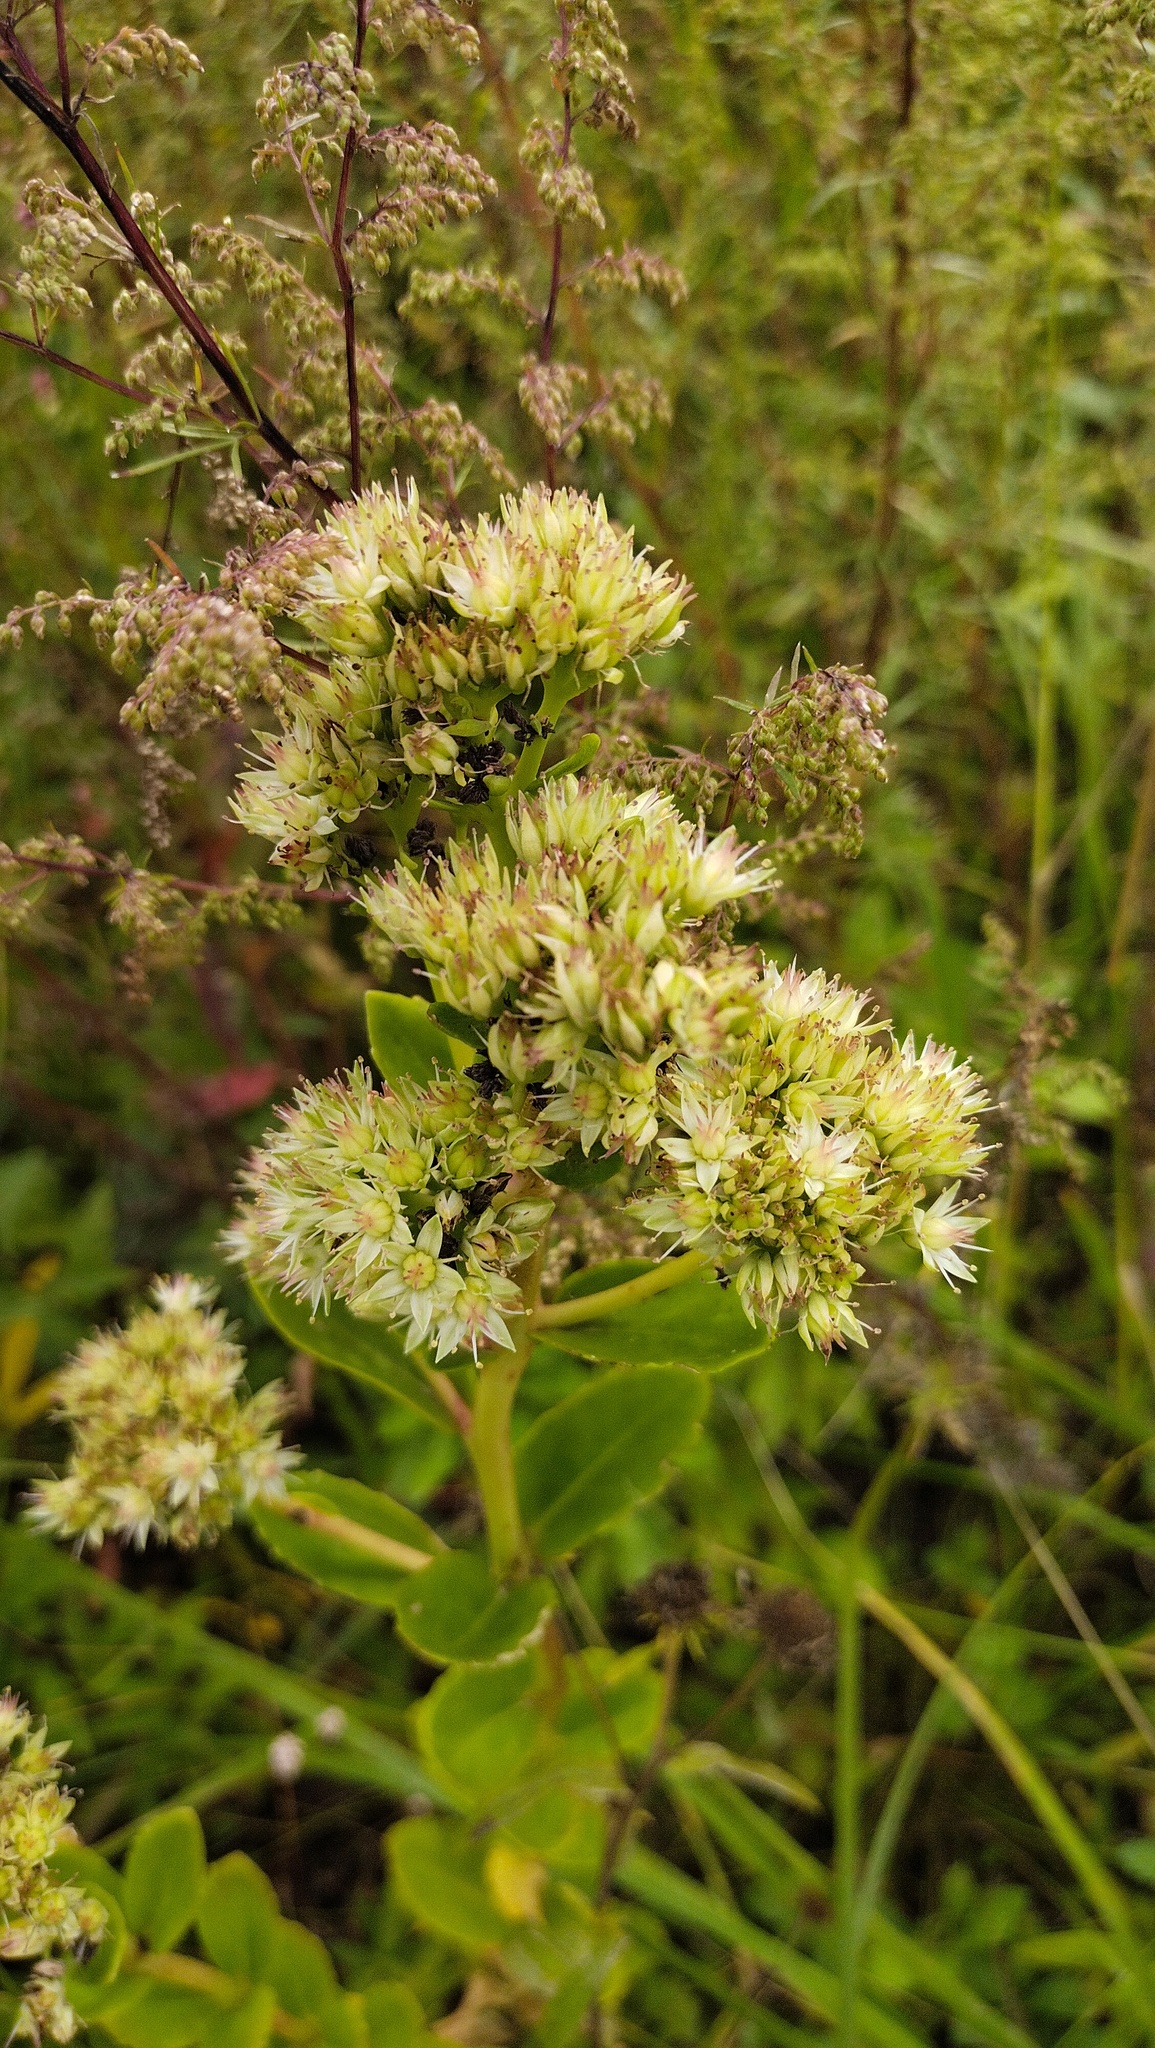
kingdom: Plantae
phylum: Tracheophyta
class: Magnoliopsida
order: Saxifragales
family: Crassulaceae
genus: Hylotelephium
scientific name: Hylotelephium pallescens
